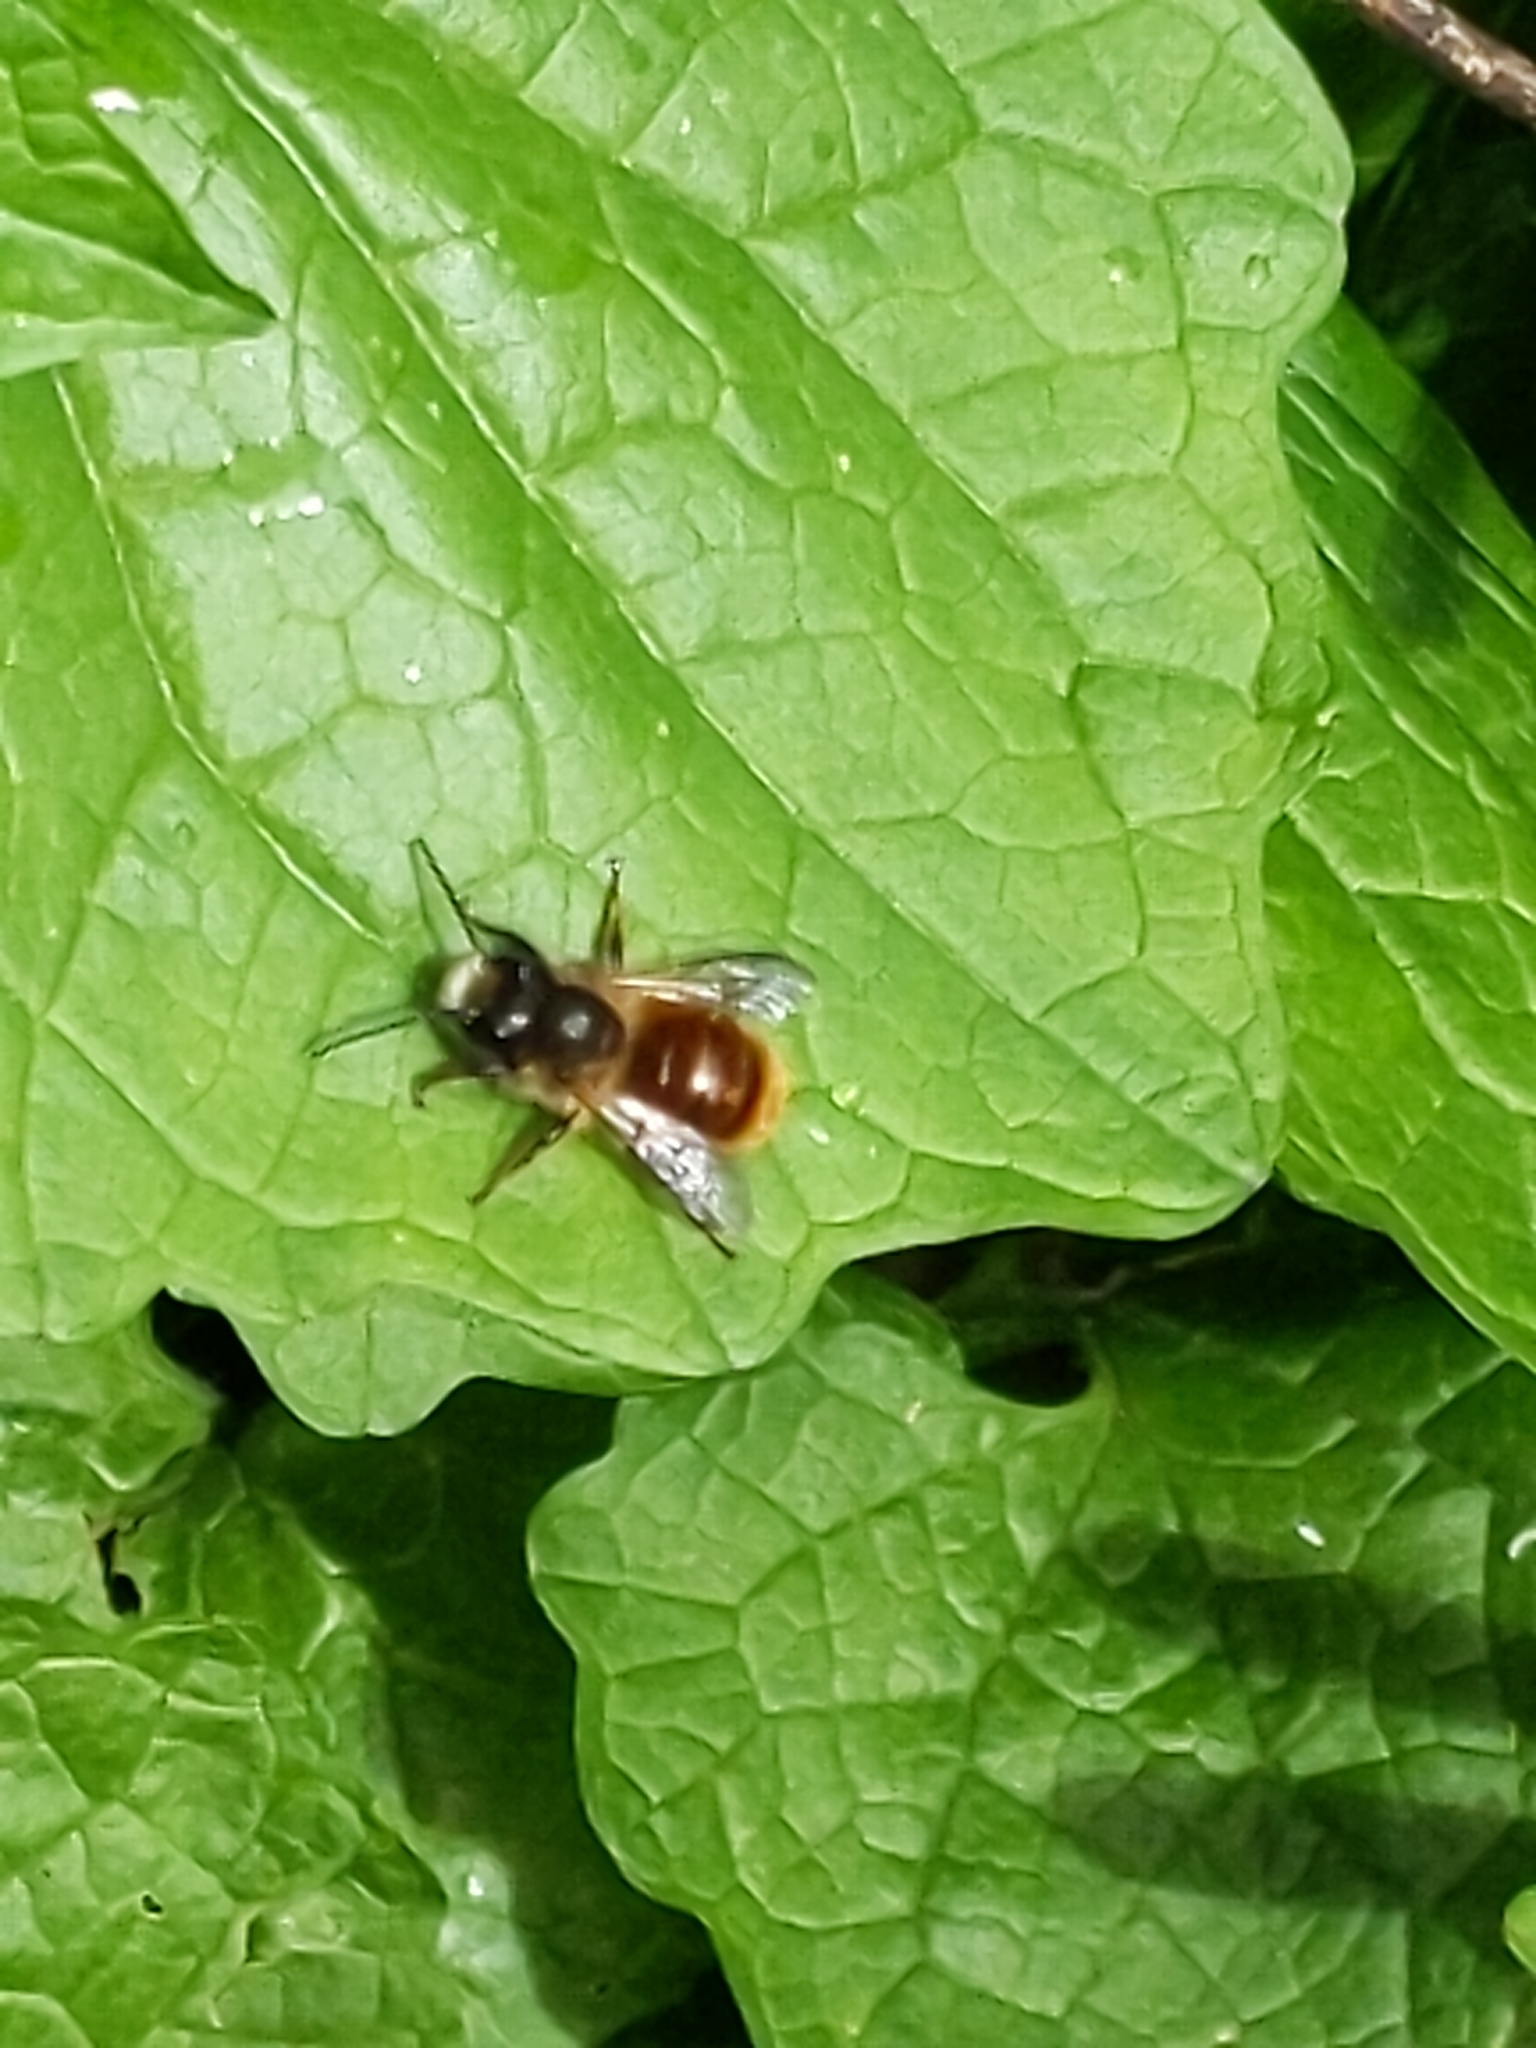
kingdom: Animalia
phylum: Arthropoda
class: Insecta
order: Hymenoptera
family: Megachilidae
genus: Osmia
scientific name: Osmia bicornis
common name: Red mason bee
